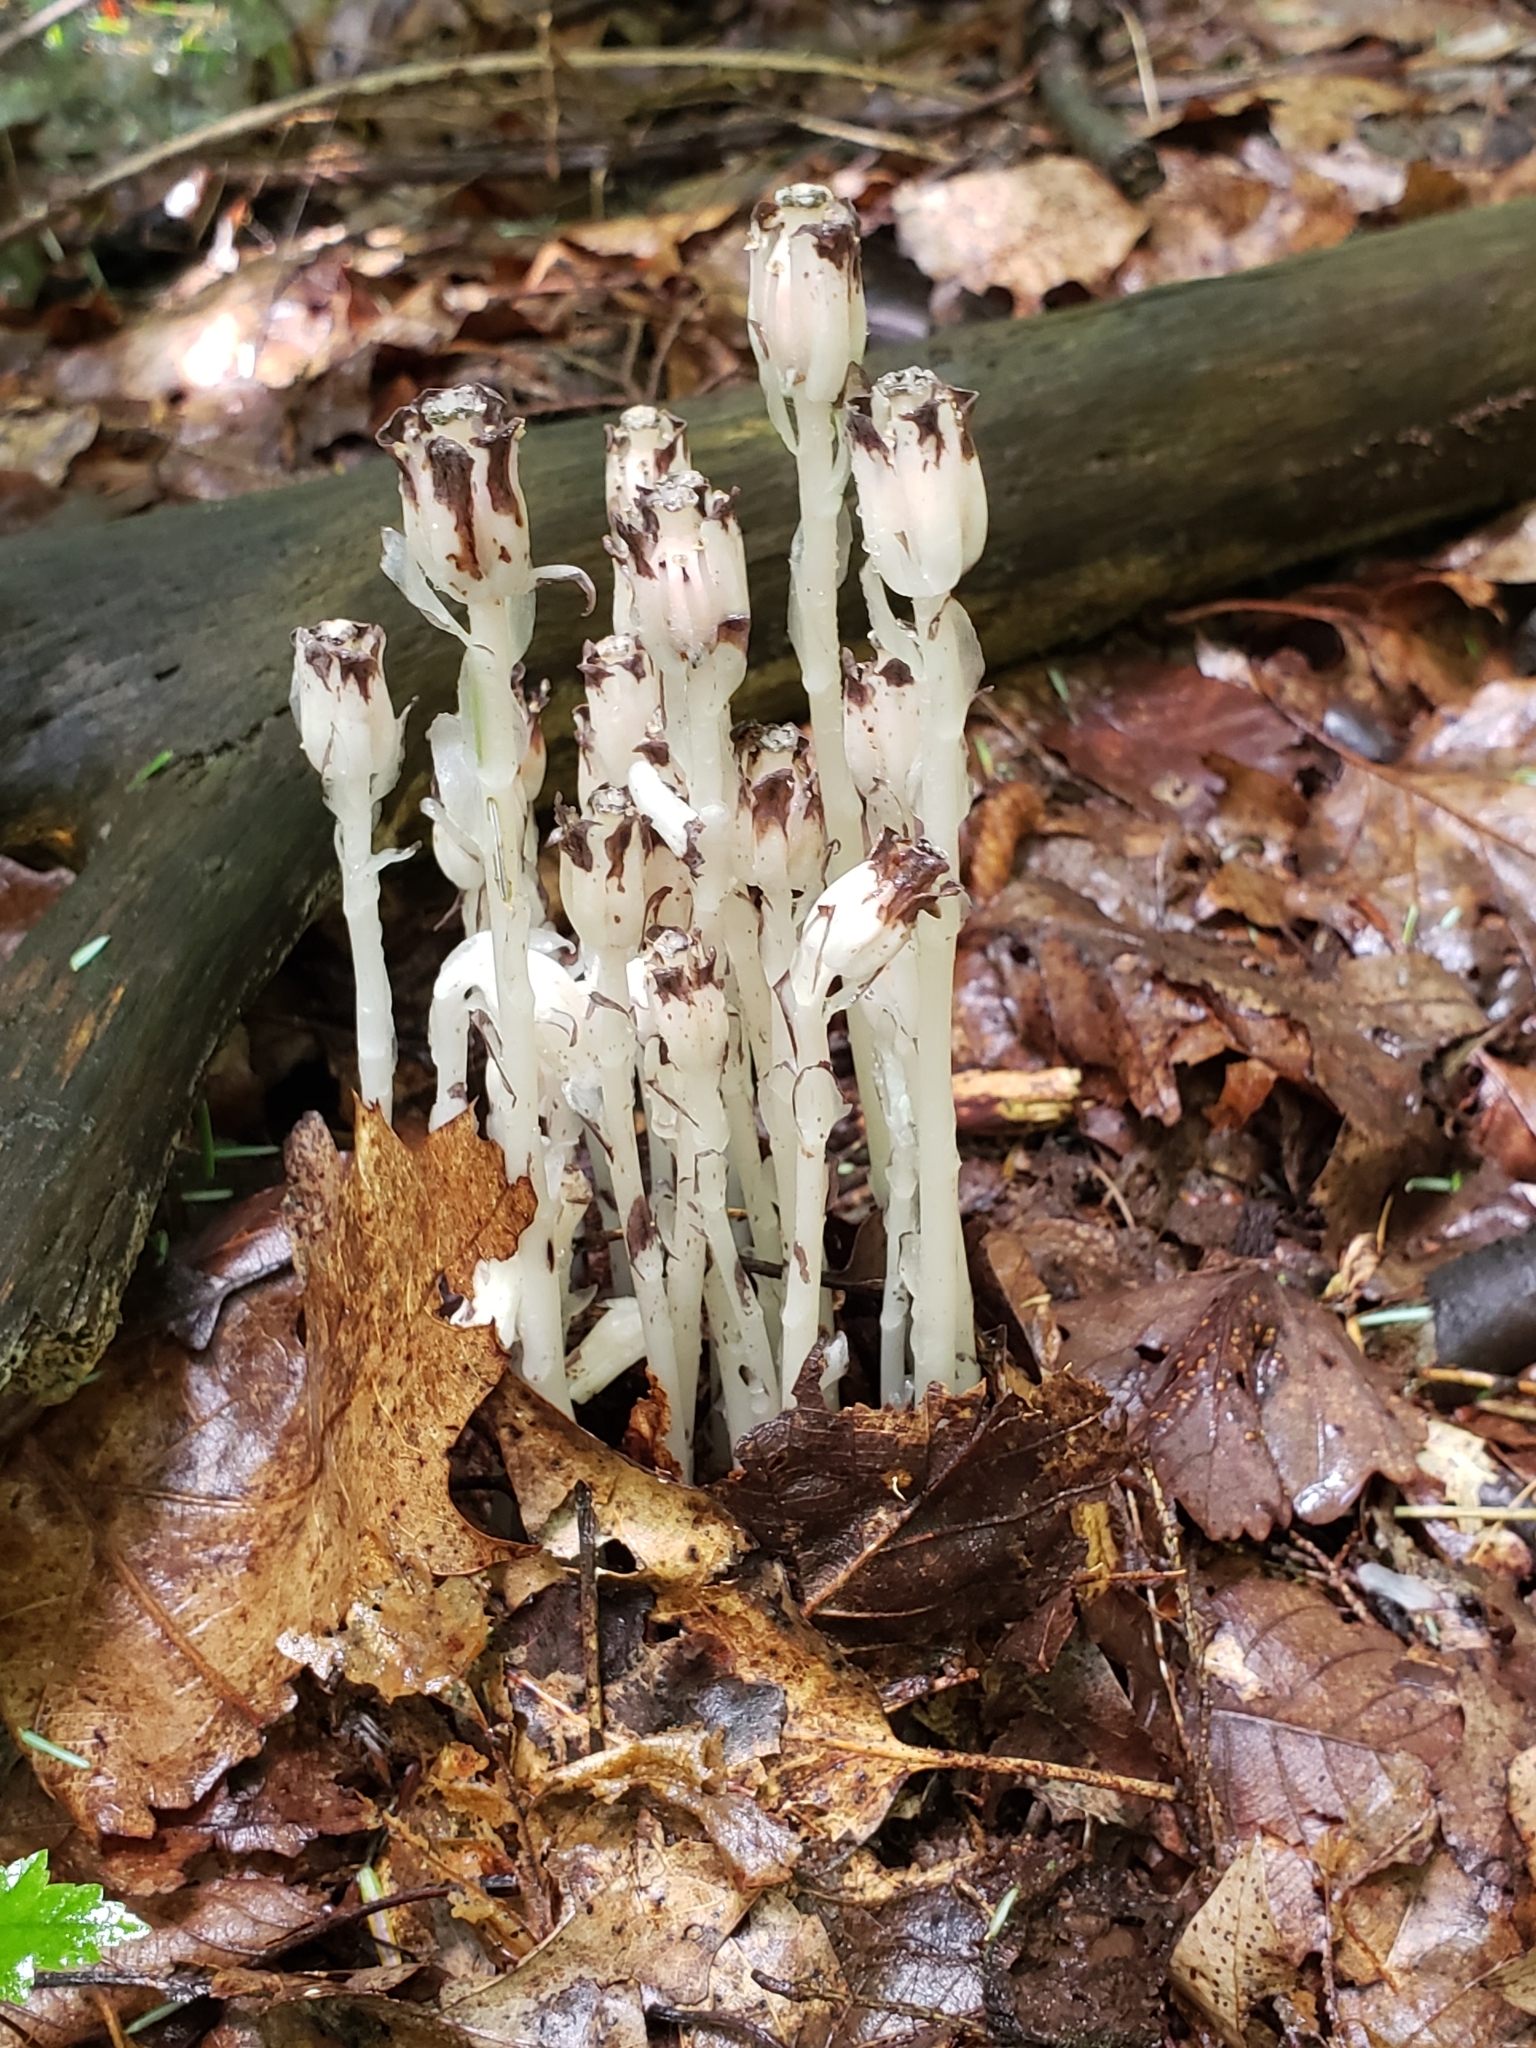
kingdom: Plantae
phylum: Tracheophyta
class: Magnoliopsida
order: Ericales
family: Ericaceae
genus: Monotropa
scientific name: Monotropa uniflora
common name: Convulsion root
